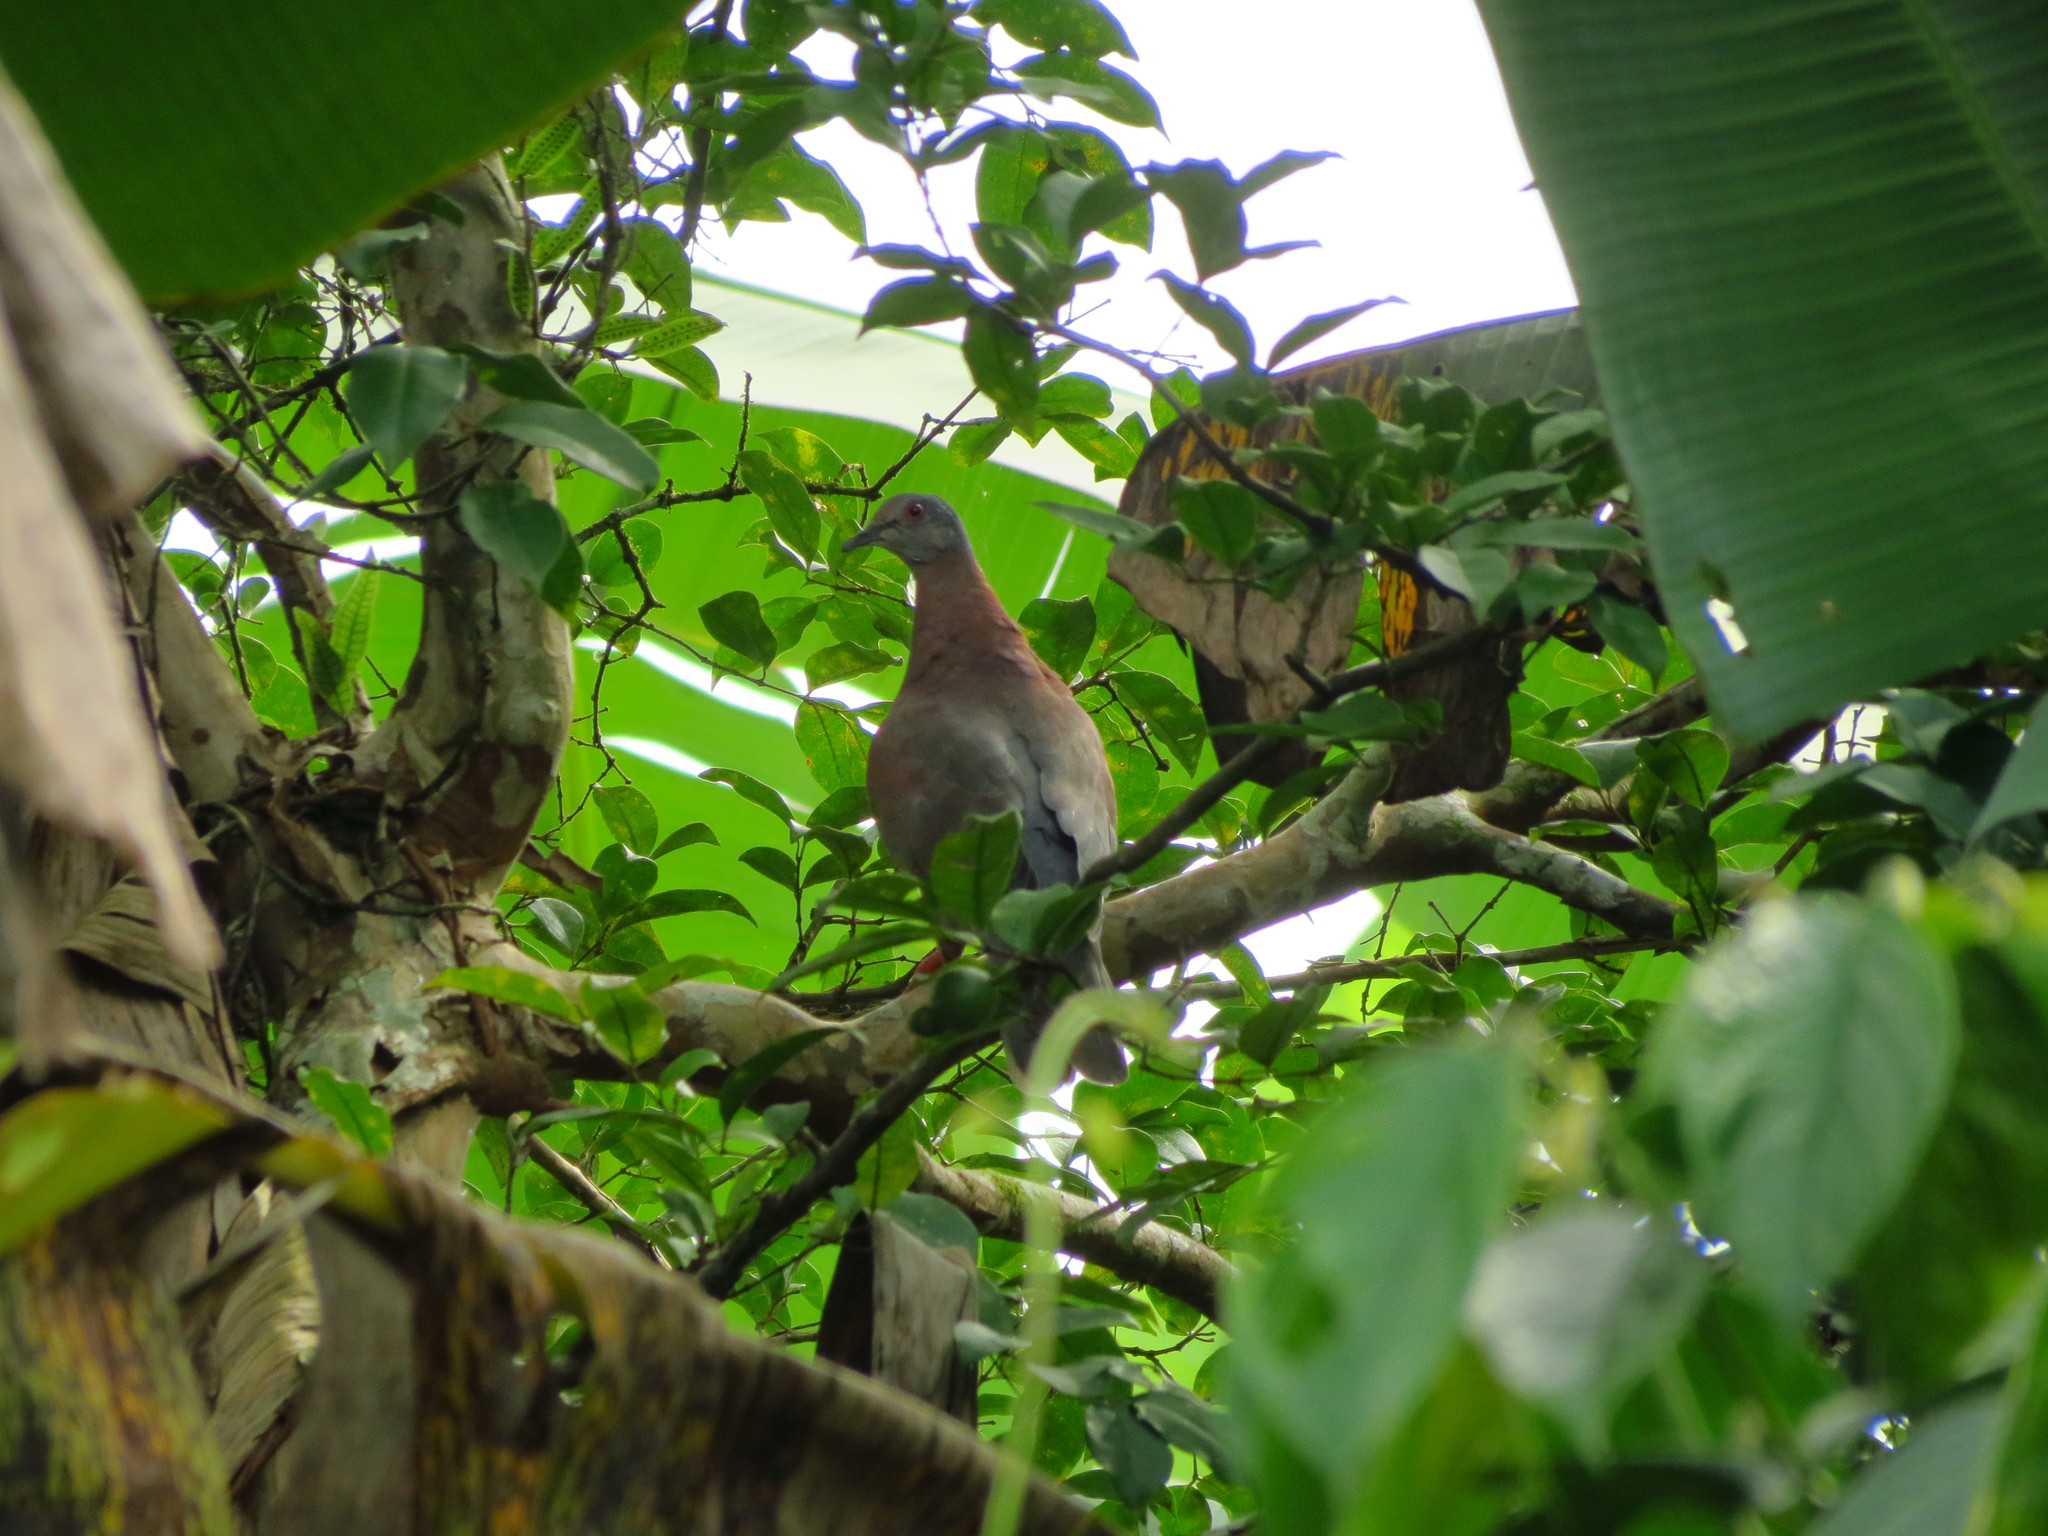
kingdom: Animalia
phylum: Chordata
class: Aves
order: Columbiformes
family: Columbidae
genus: Patagioenas
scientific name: Patagioenas cayennensis
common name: Pale-vented pigeon
